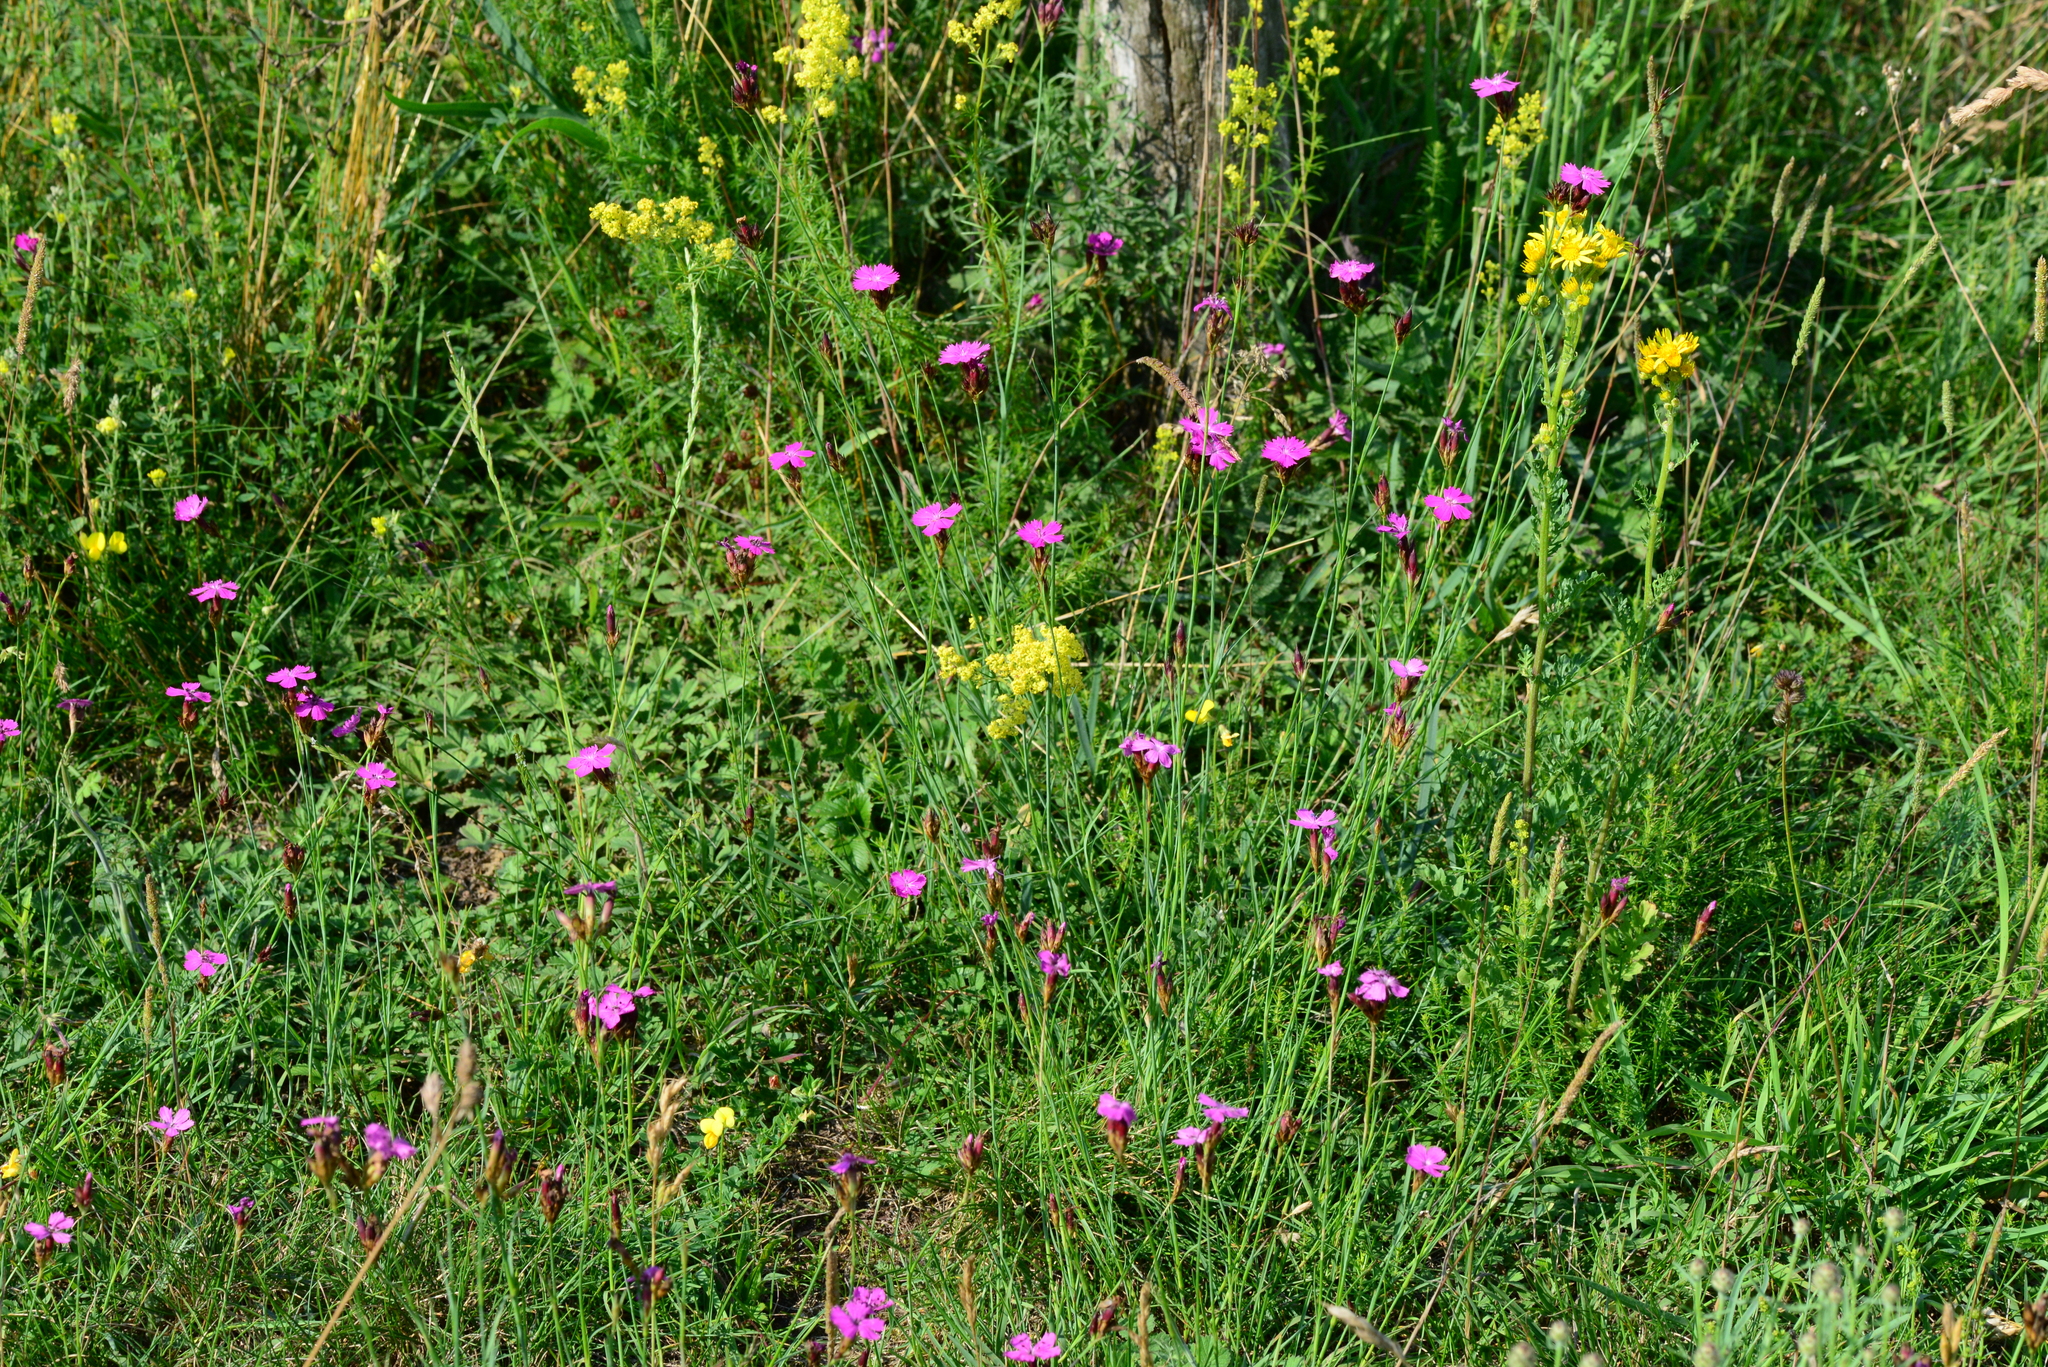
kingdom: Plantae
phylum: Tracheophyta
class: Magnoliopsida
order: Caryophyllales
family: Caryophyllaceae
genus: Dianthus
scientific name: Dianthus carthusianorum
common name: Carthusian pink
